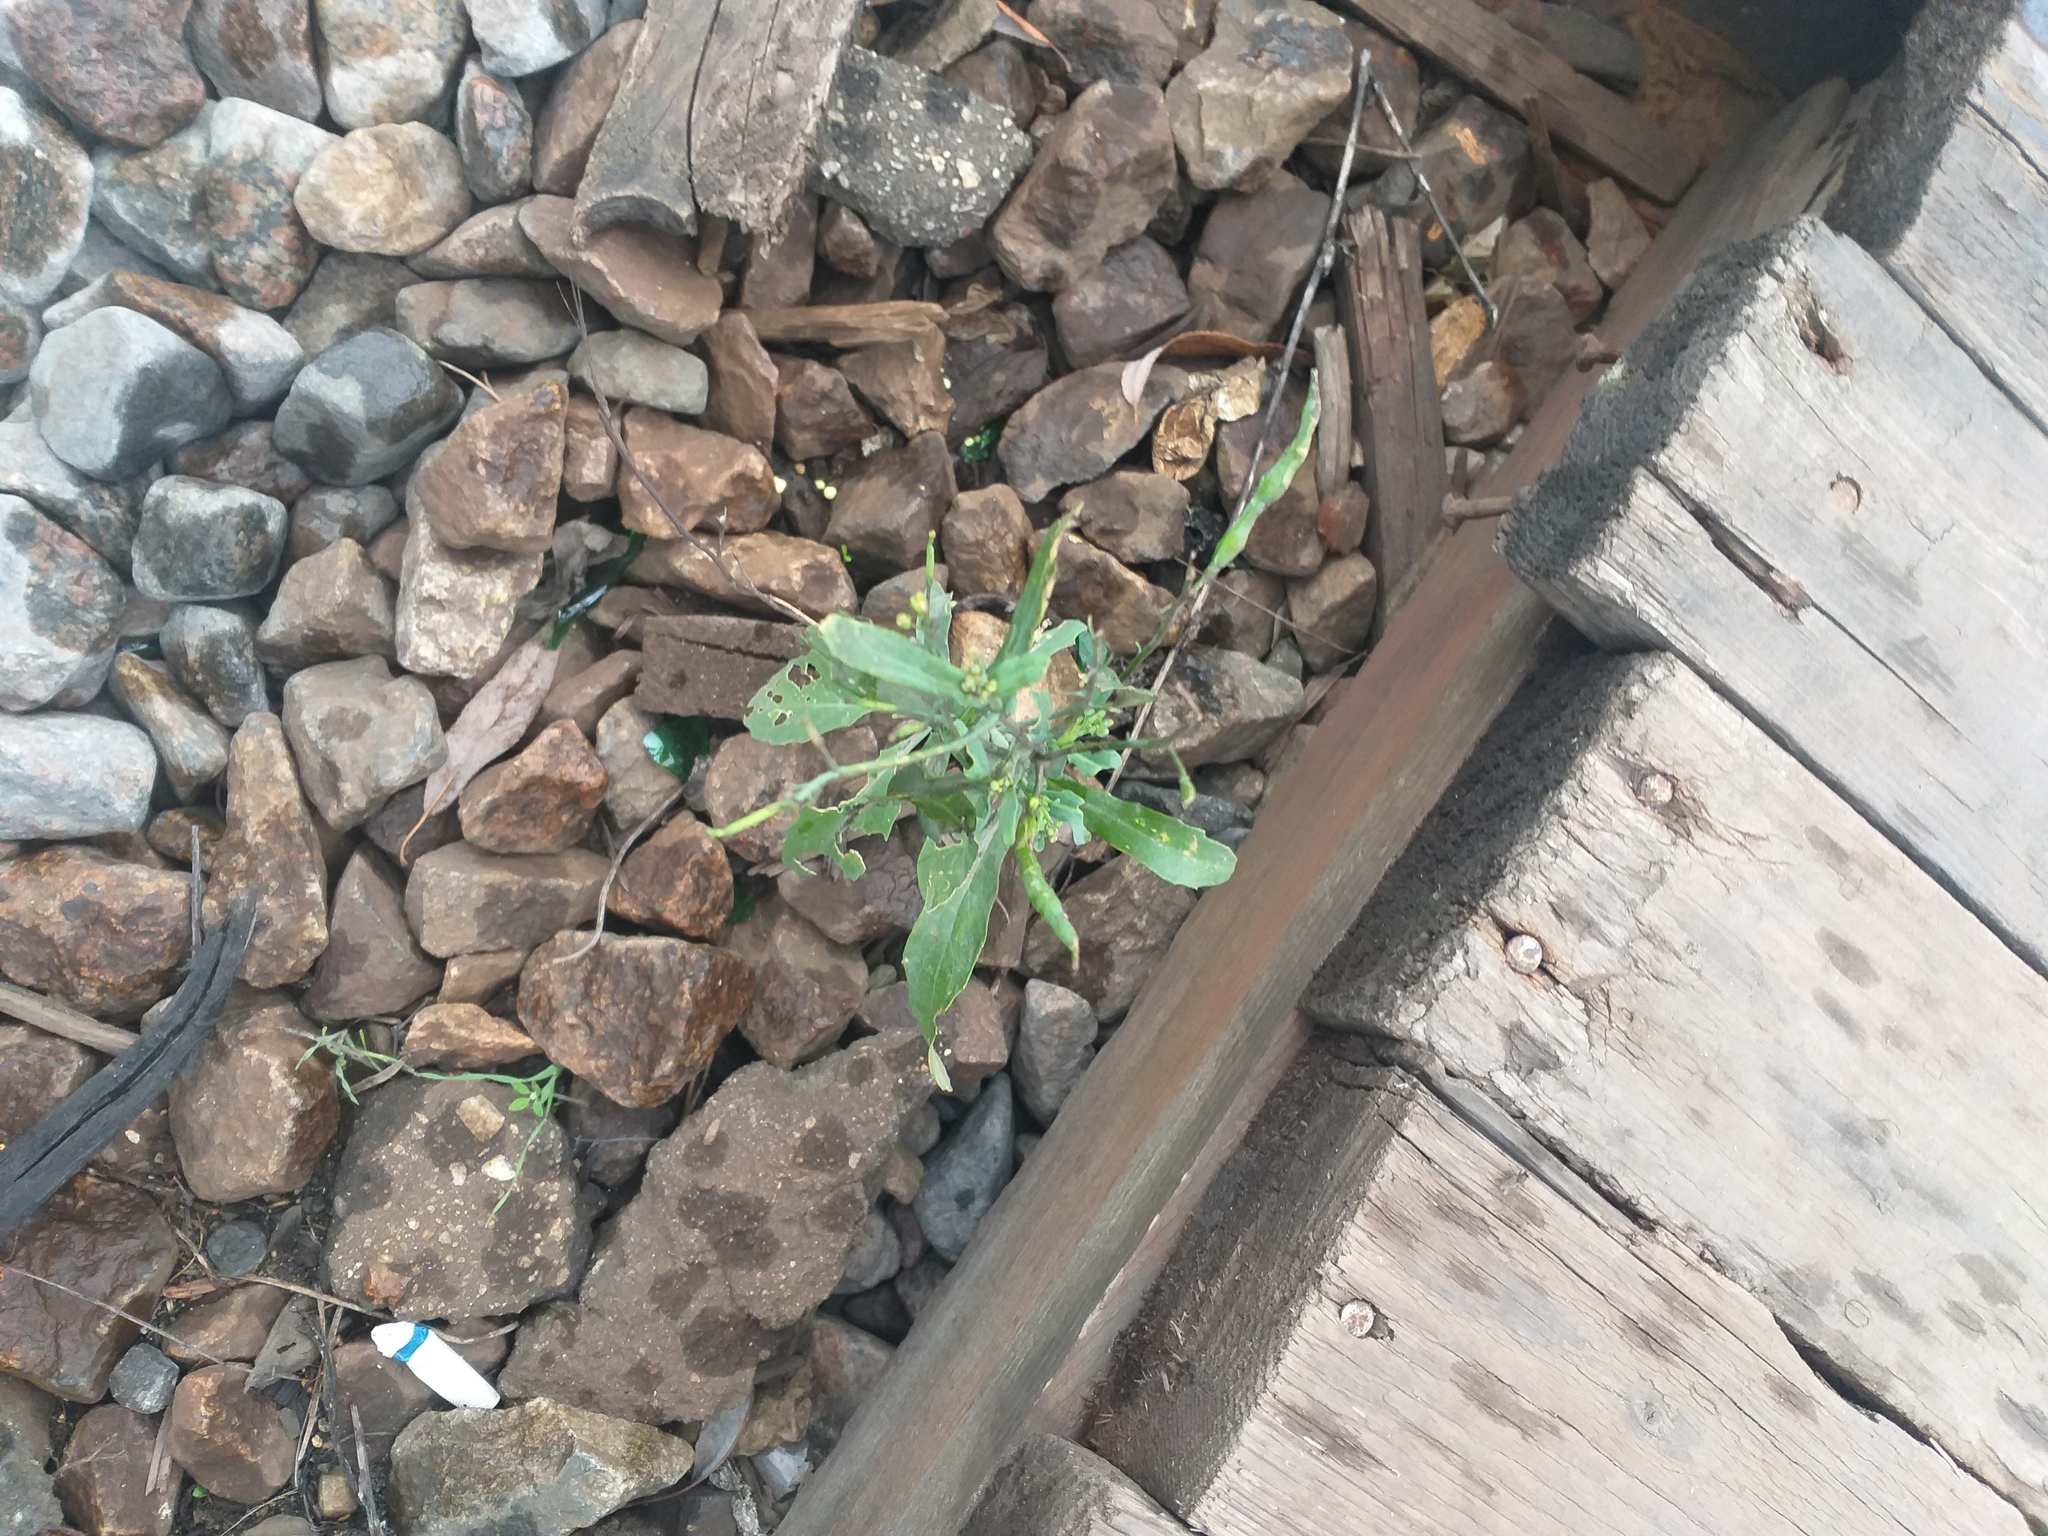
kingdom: Plantae
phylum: Tracheophyta
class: Magnoliopsida
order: Brassicales
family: Brassicaceae
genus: Brassica
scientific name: Brassica napus
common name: Rape
